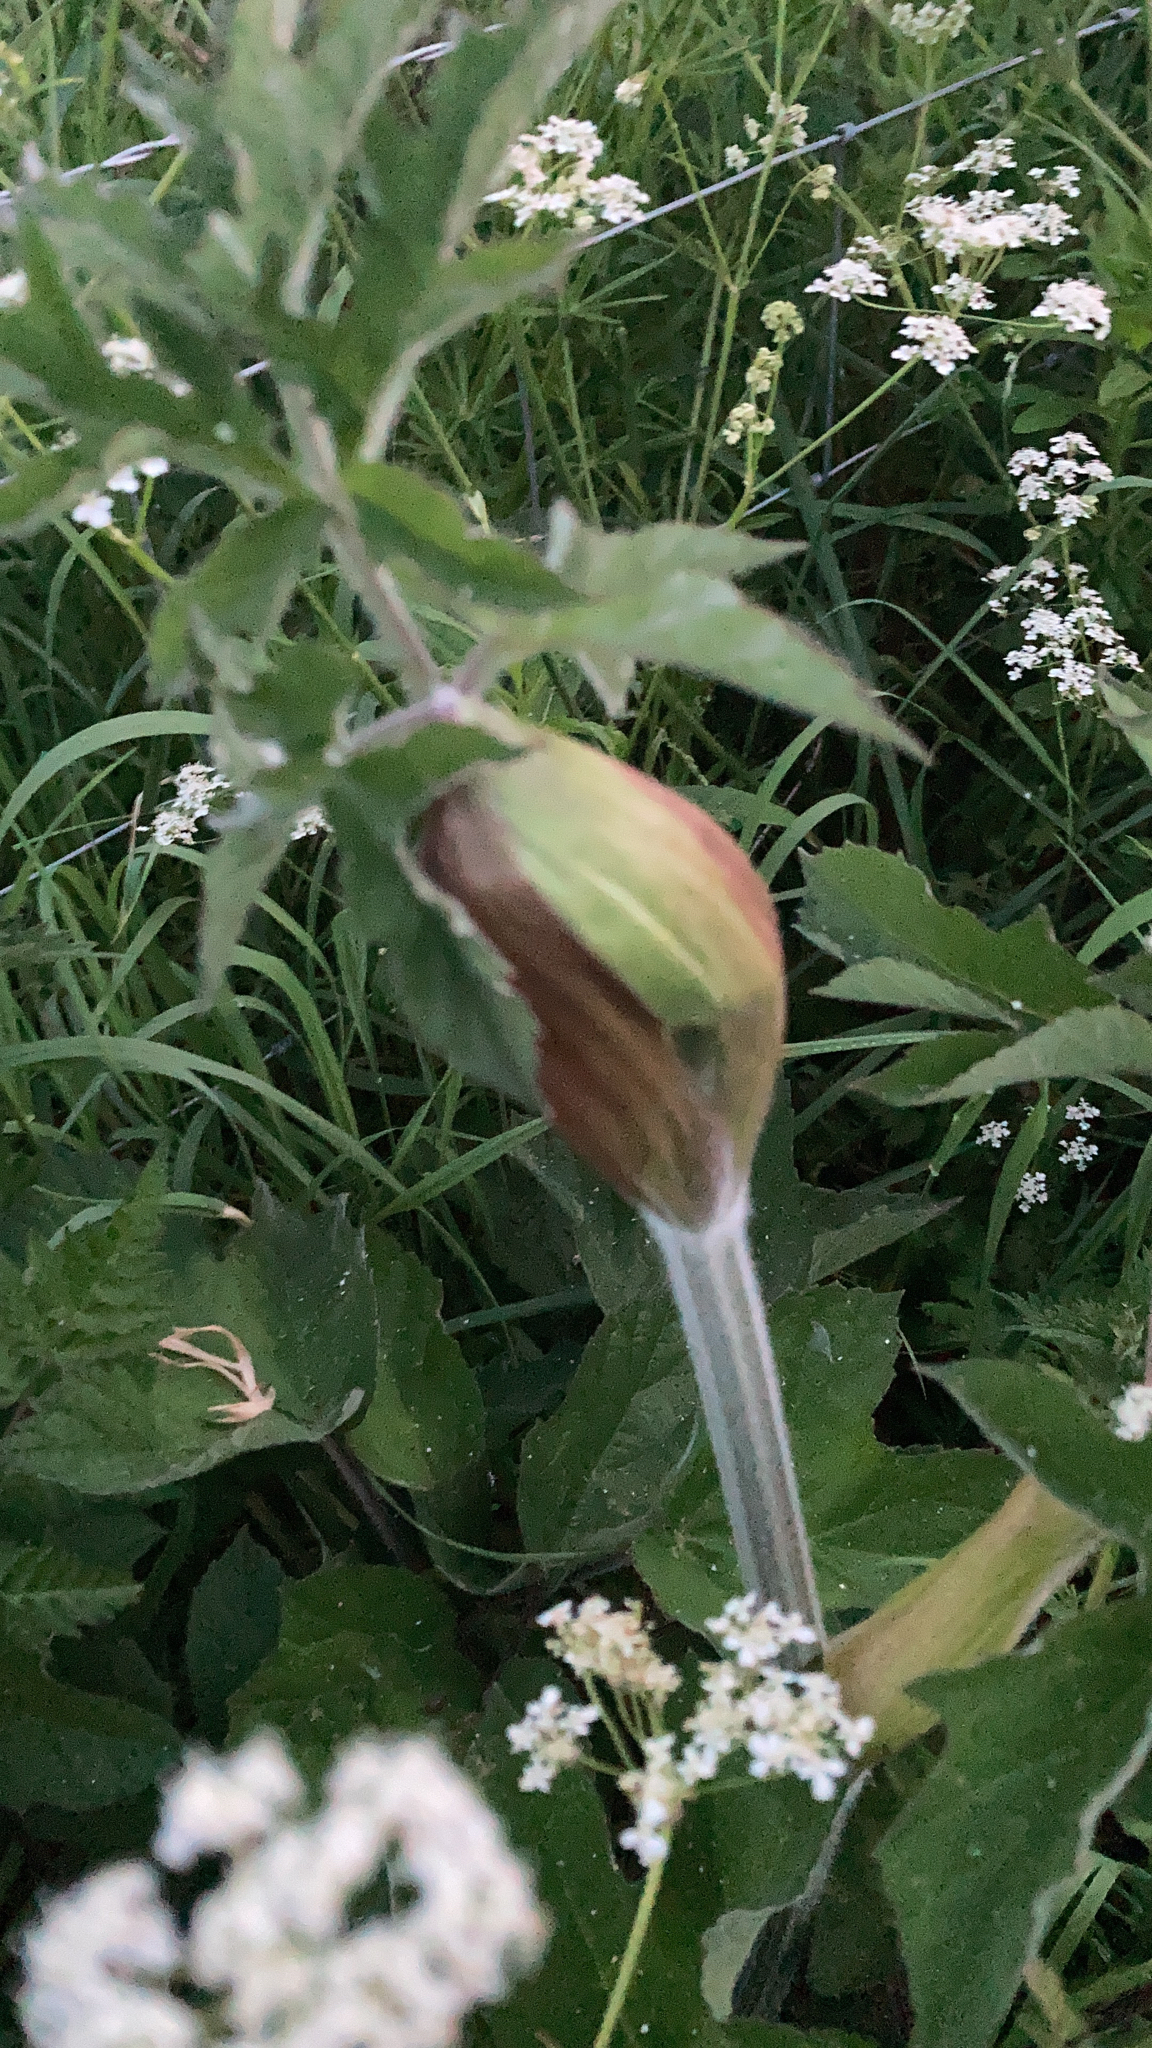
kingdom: Plantae
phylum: Tracheophyta
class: Magnoliopsida
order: Apiales
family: Apiaceae
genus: Heracleum
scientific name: Heracleum sphondylium
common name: Hogweed
